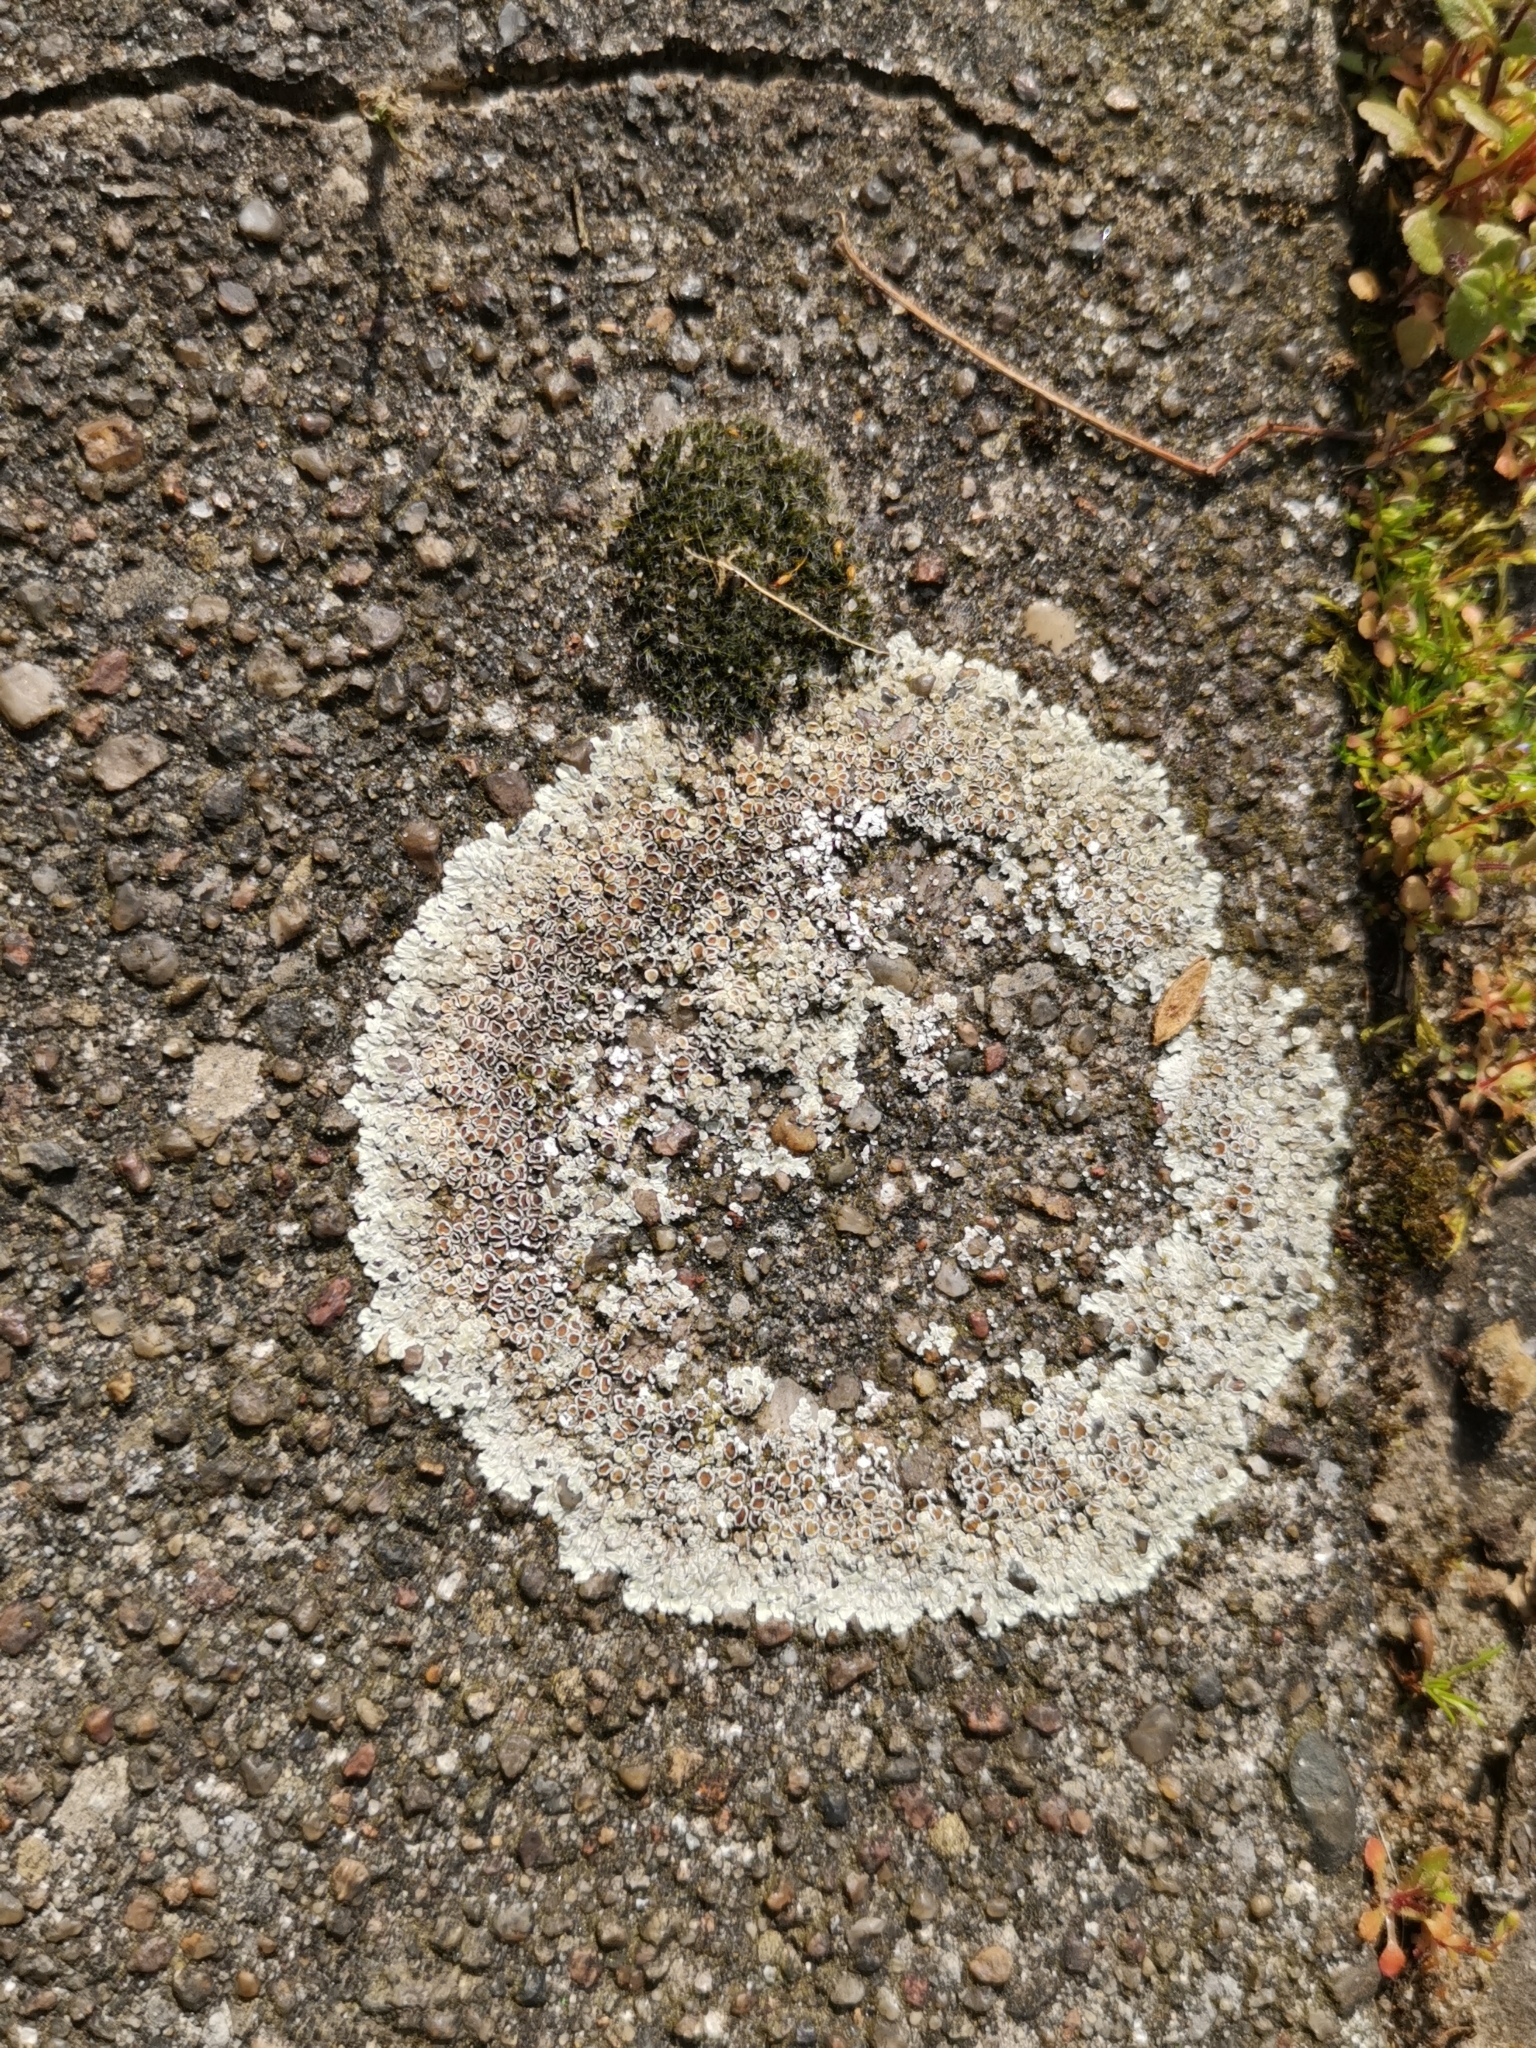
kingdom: Fungi
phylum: Ascomycota
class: Lecanoromycetes
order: Lecanorales
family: Lecanoraceae
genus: Protoparmeliopsis
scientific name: Protoparmeliopsis muralis
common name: Stonewall rim lichen
